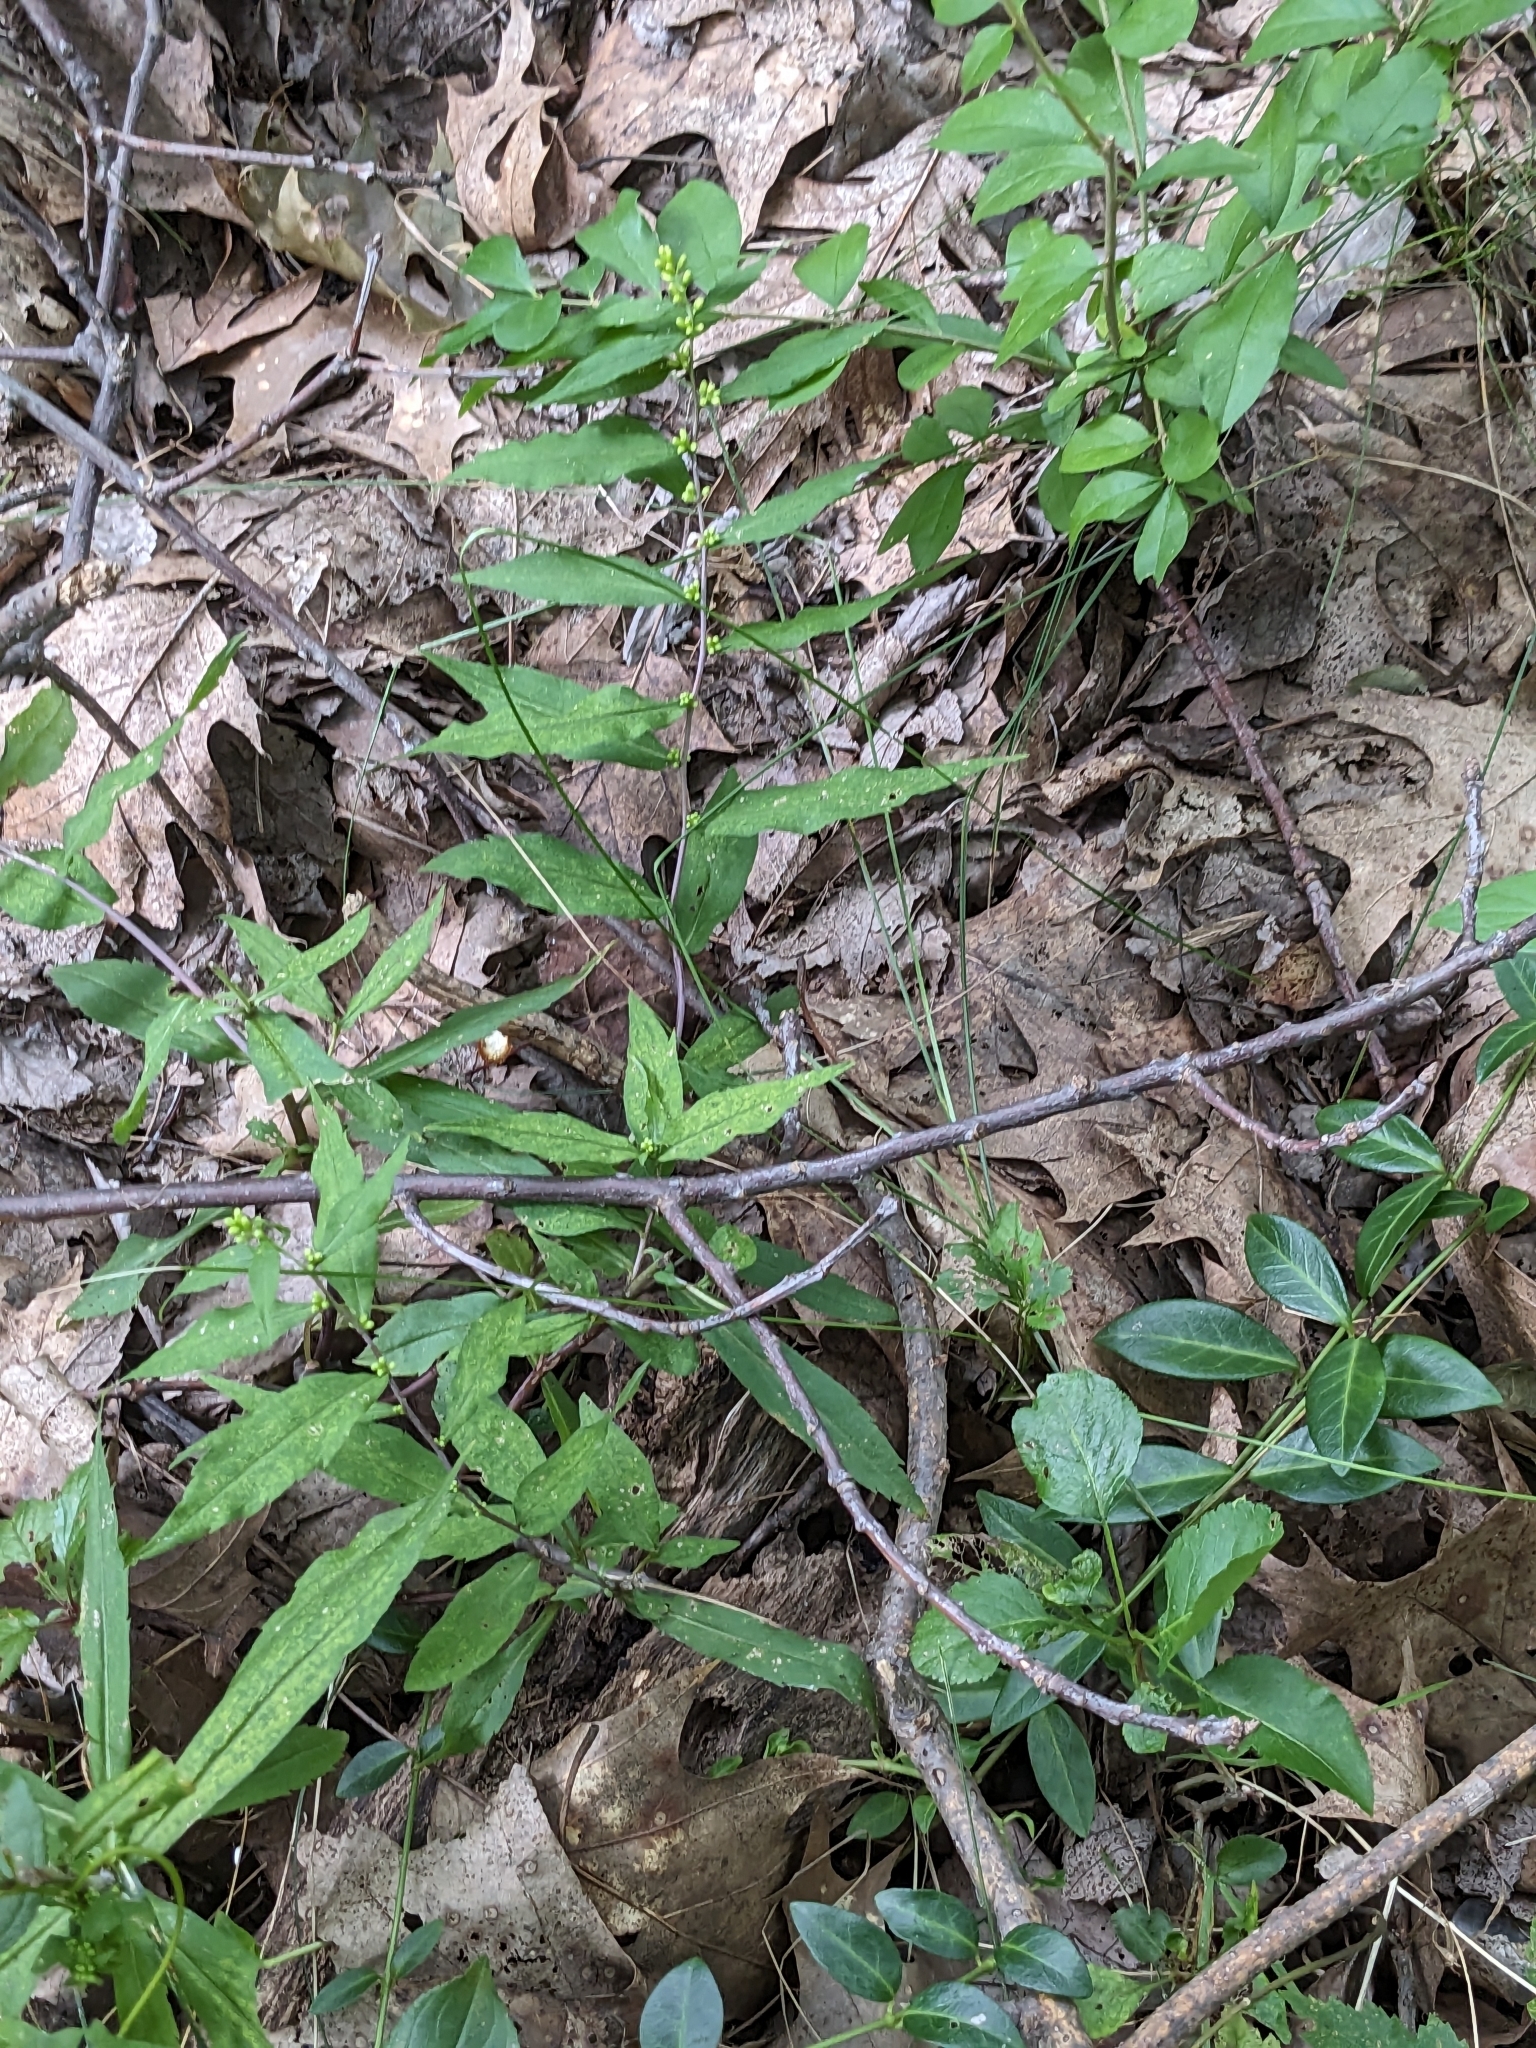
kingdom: Plantae
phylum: Tracheophyta
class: Magnoliopsida
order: Asterales
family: Asteraceae
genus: Solidago
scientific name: Solidago caesia
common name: Woodland goldenrod
